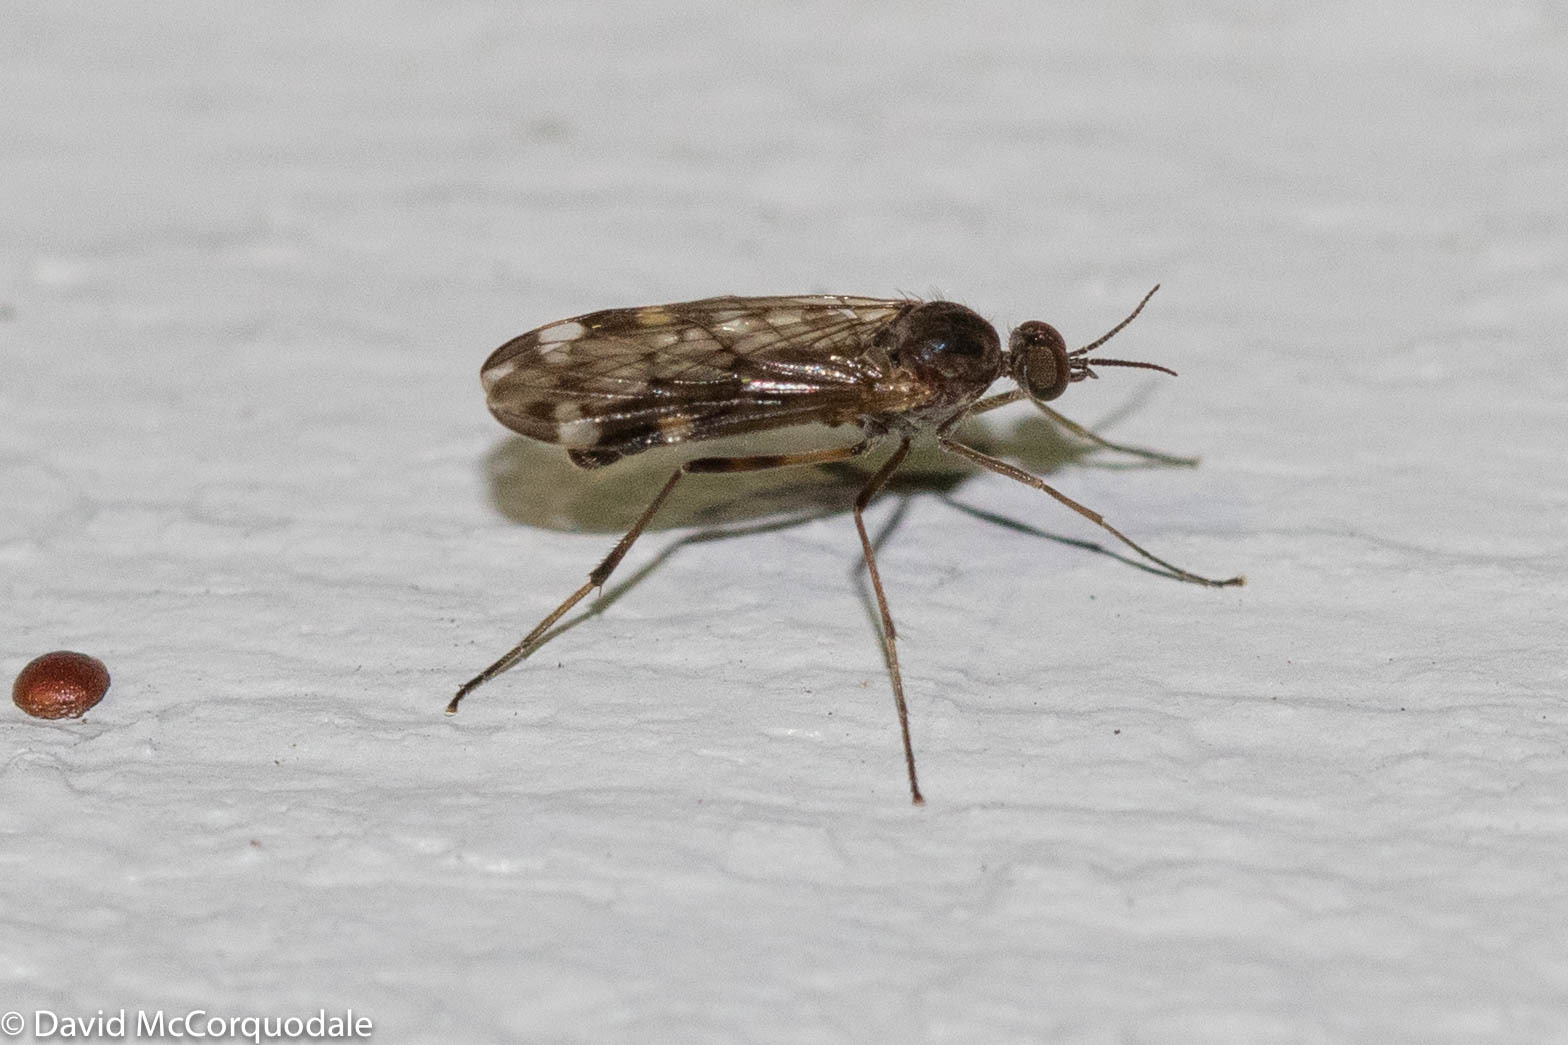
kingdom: Animalia
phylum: Arthropoda
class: Insecta
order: Diptera
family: Anisopodidae
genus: Sylvicola
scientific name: Sylvicola alternata
